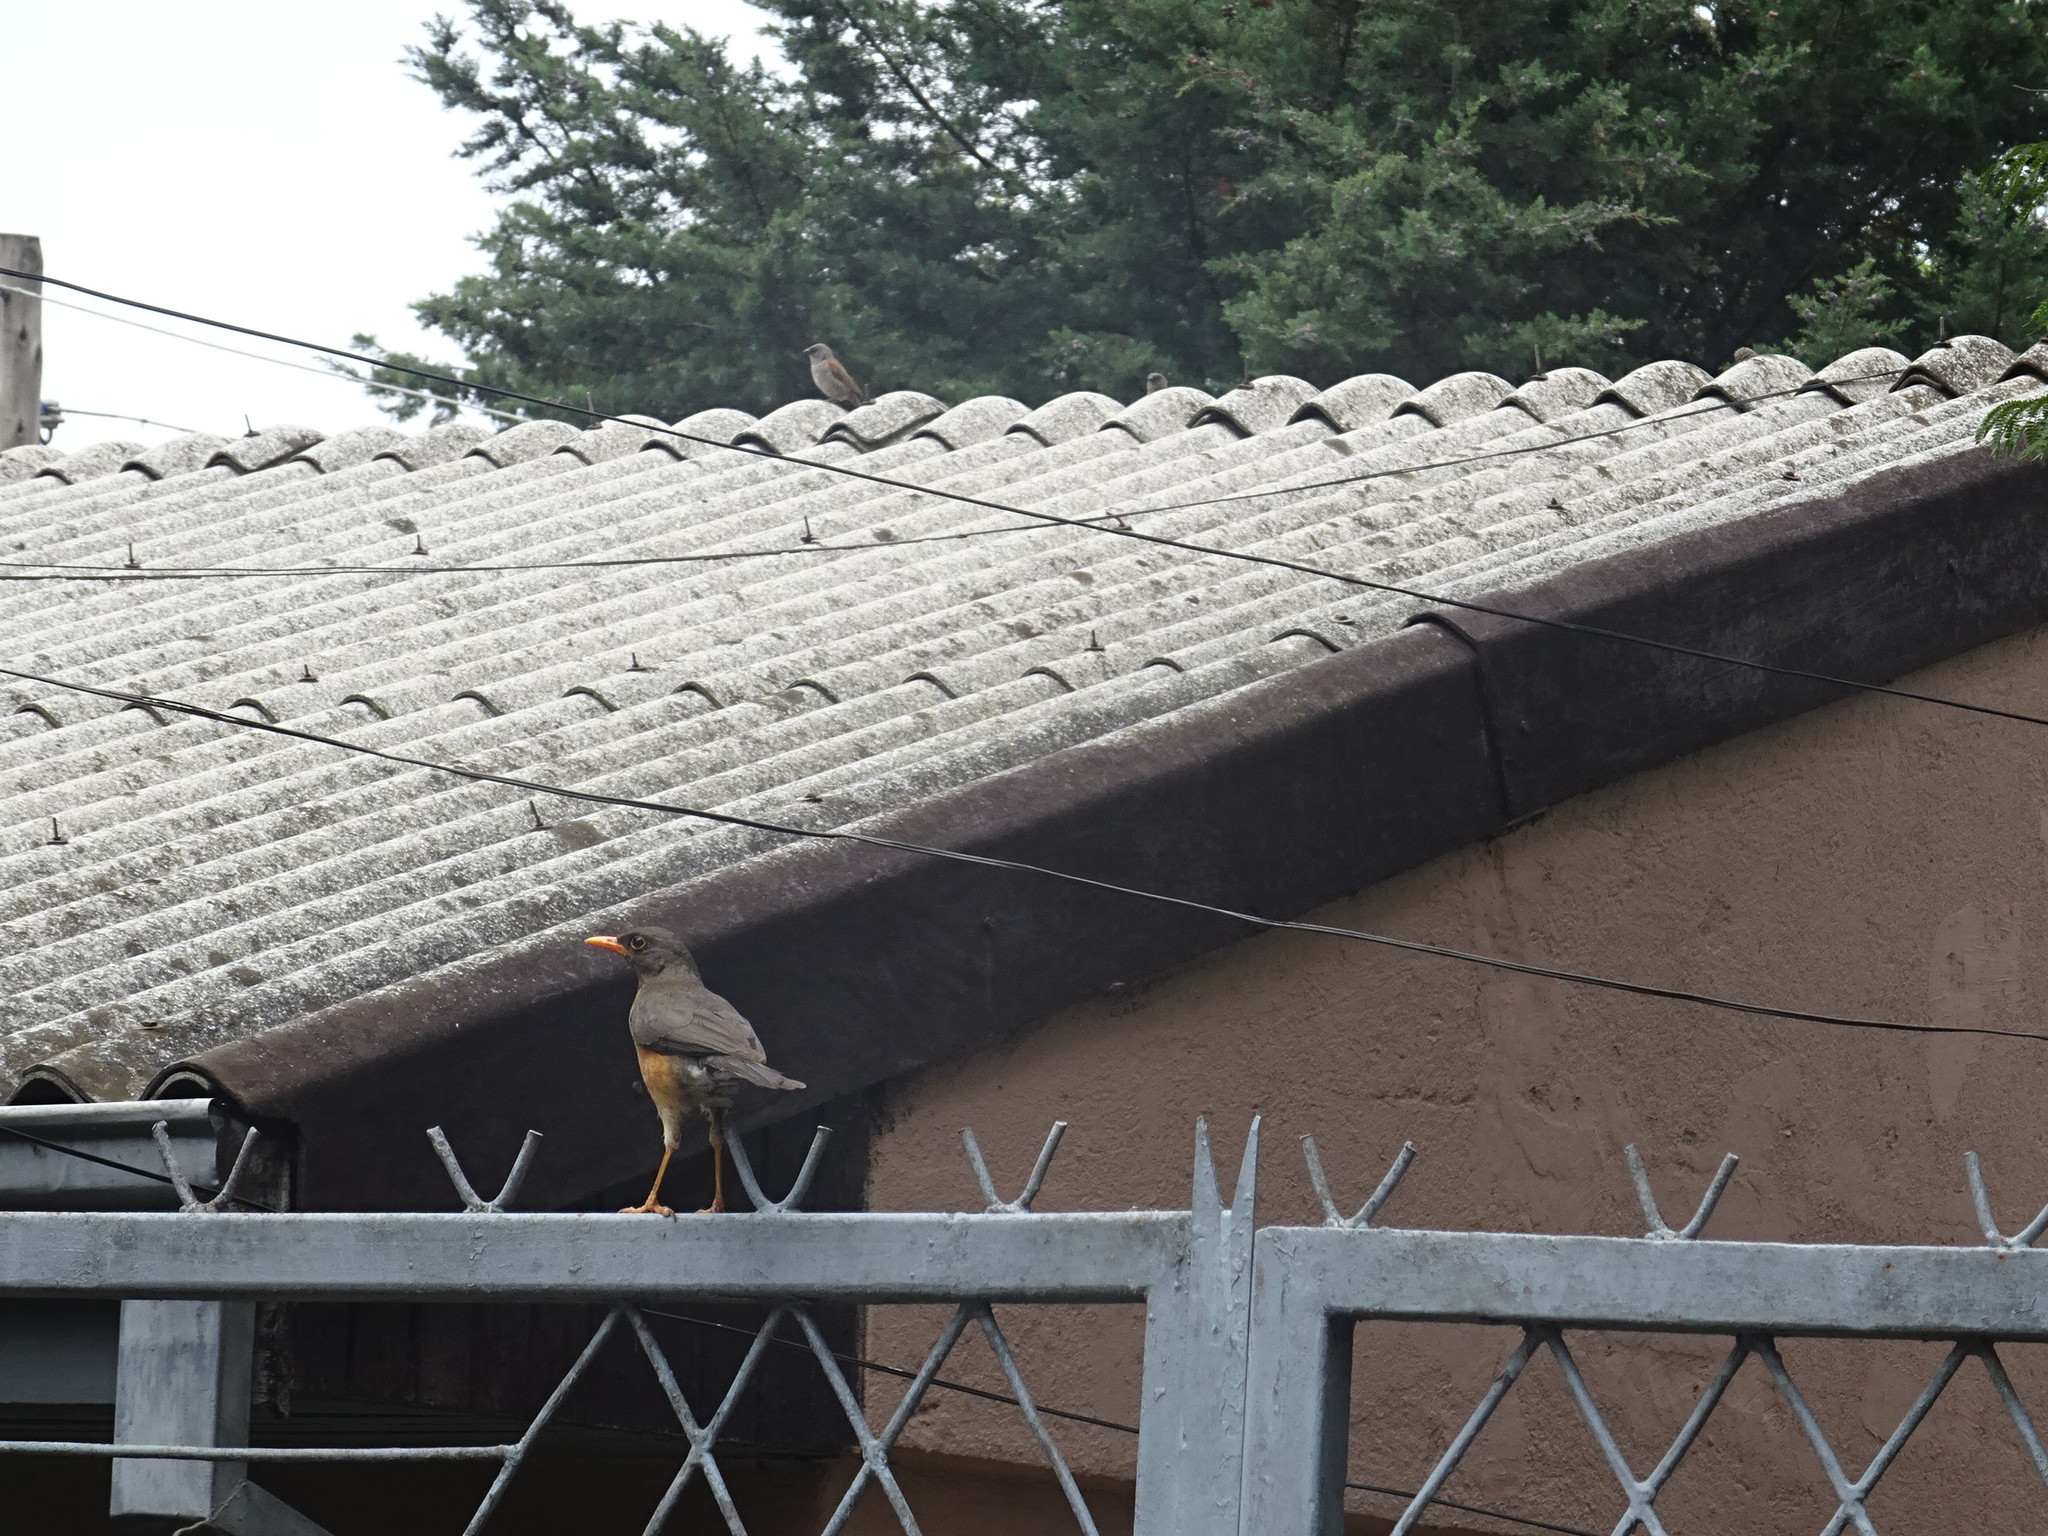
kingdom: Animalia
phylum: Chordata
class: Aves
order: Passeriformes
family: Turdidae
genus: Turdus
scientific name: Turdus abyssinicus
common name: Abyssinian thrush
